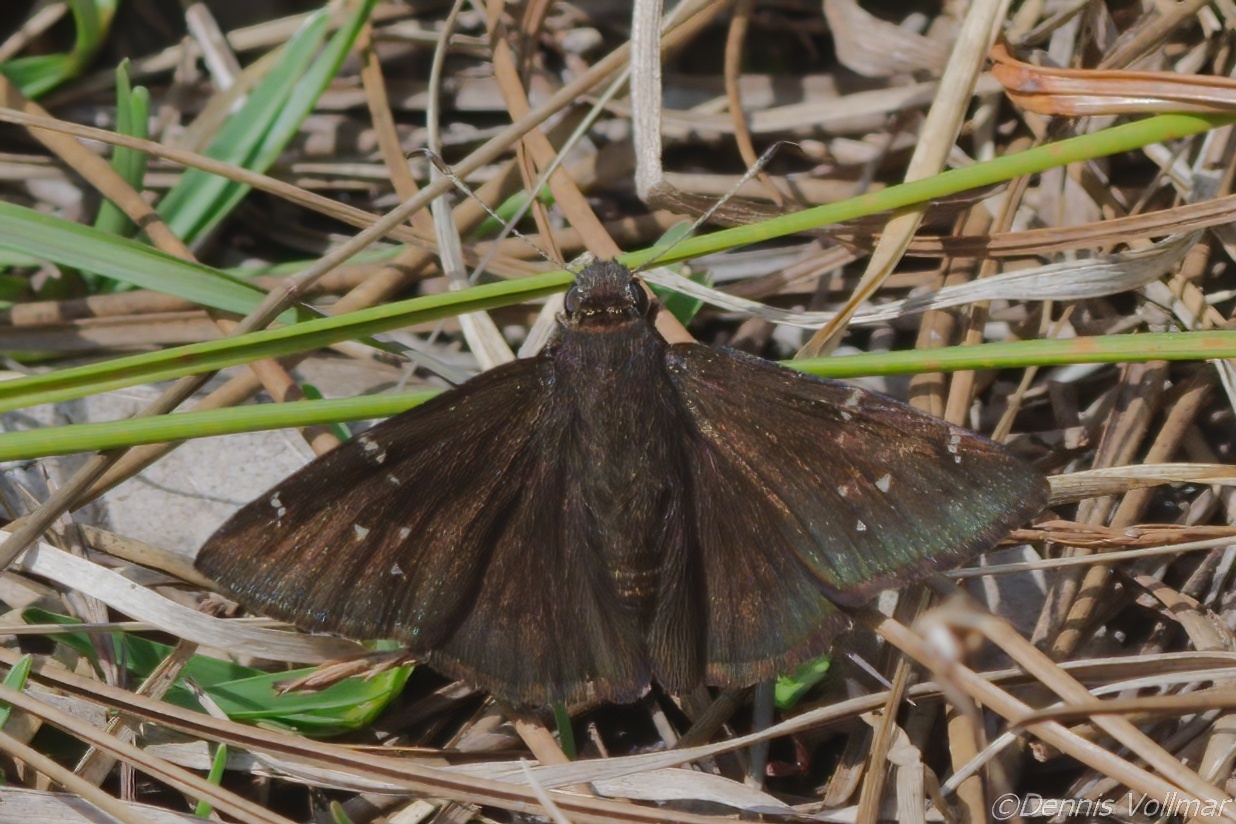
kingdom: Animalia
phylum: Arthropoda
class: Insecta
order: Lepidoptera
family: Hesperiidae
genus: Thorybes
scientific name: Thorybes pylades
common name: Northern cloudywing
